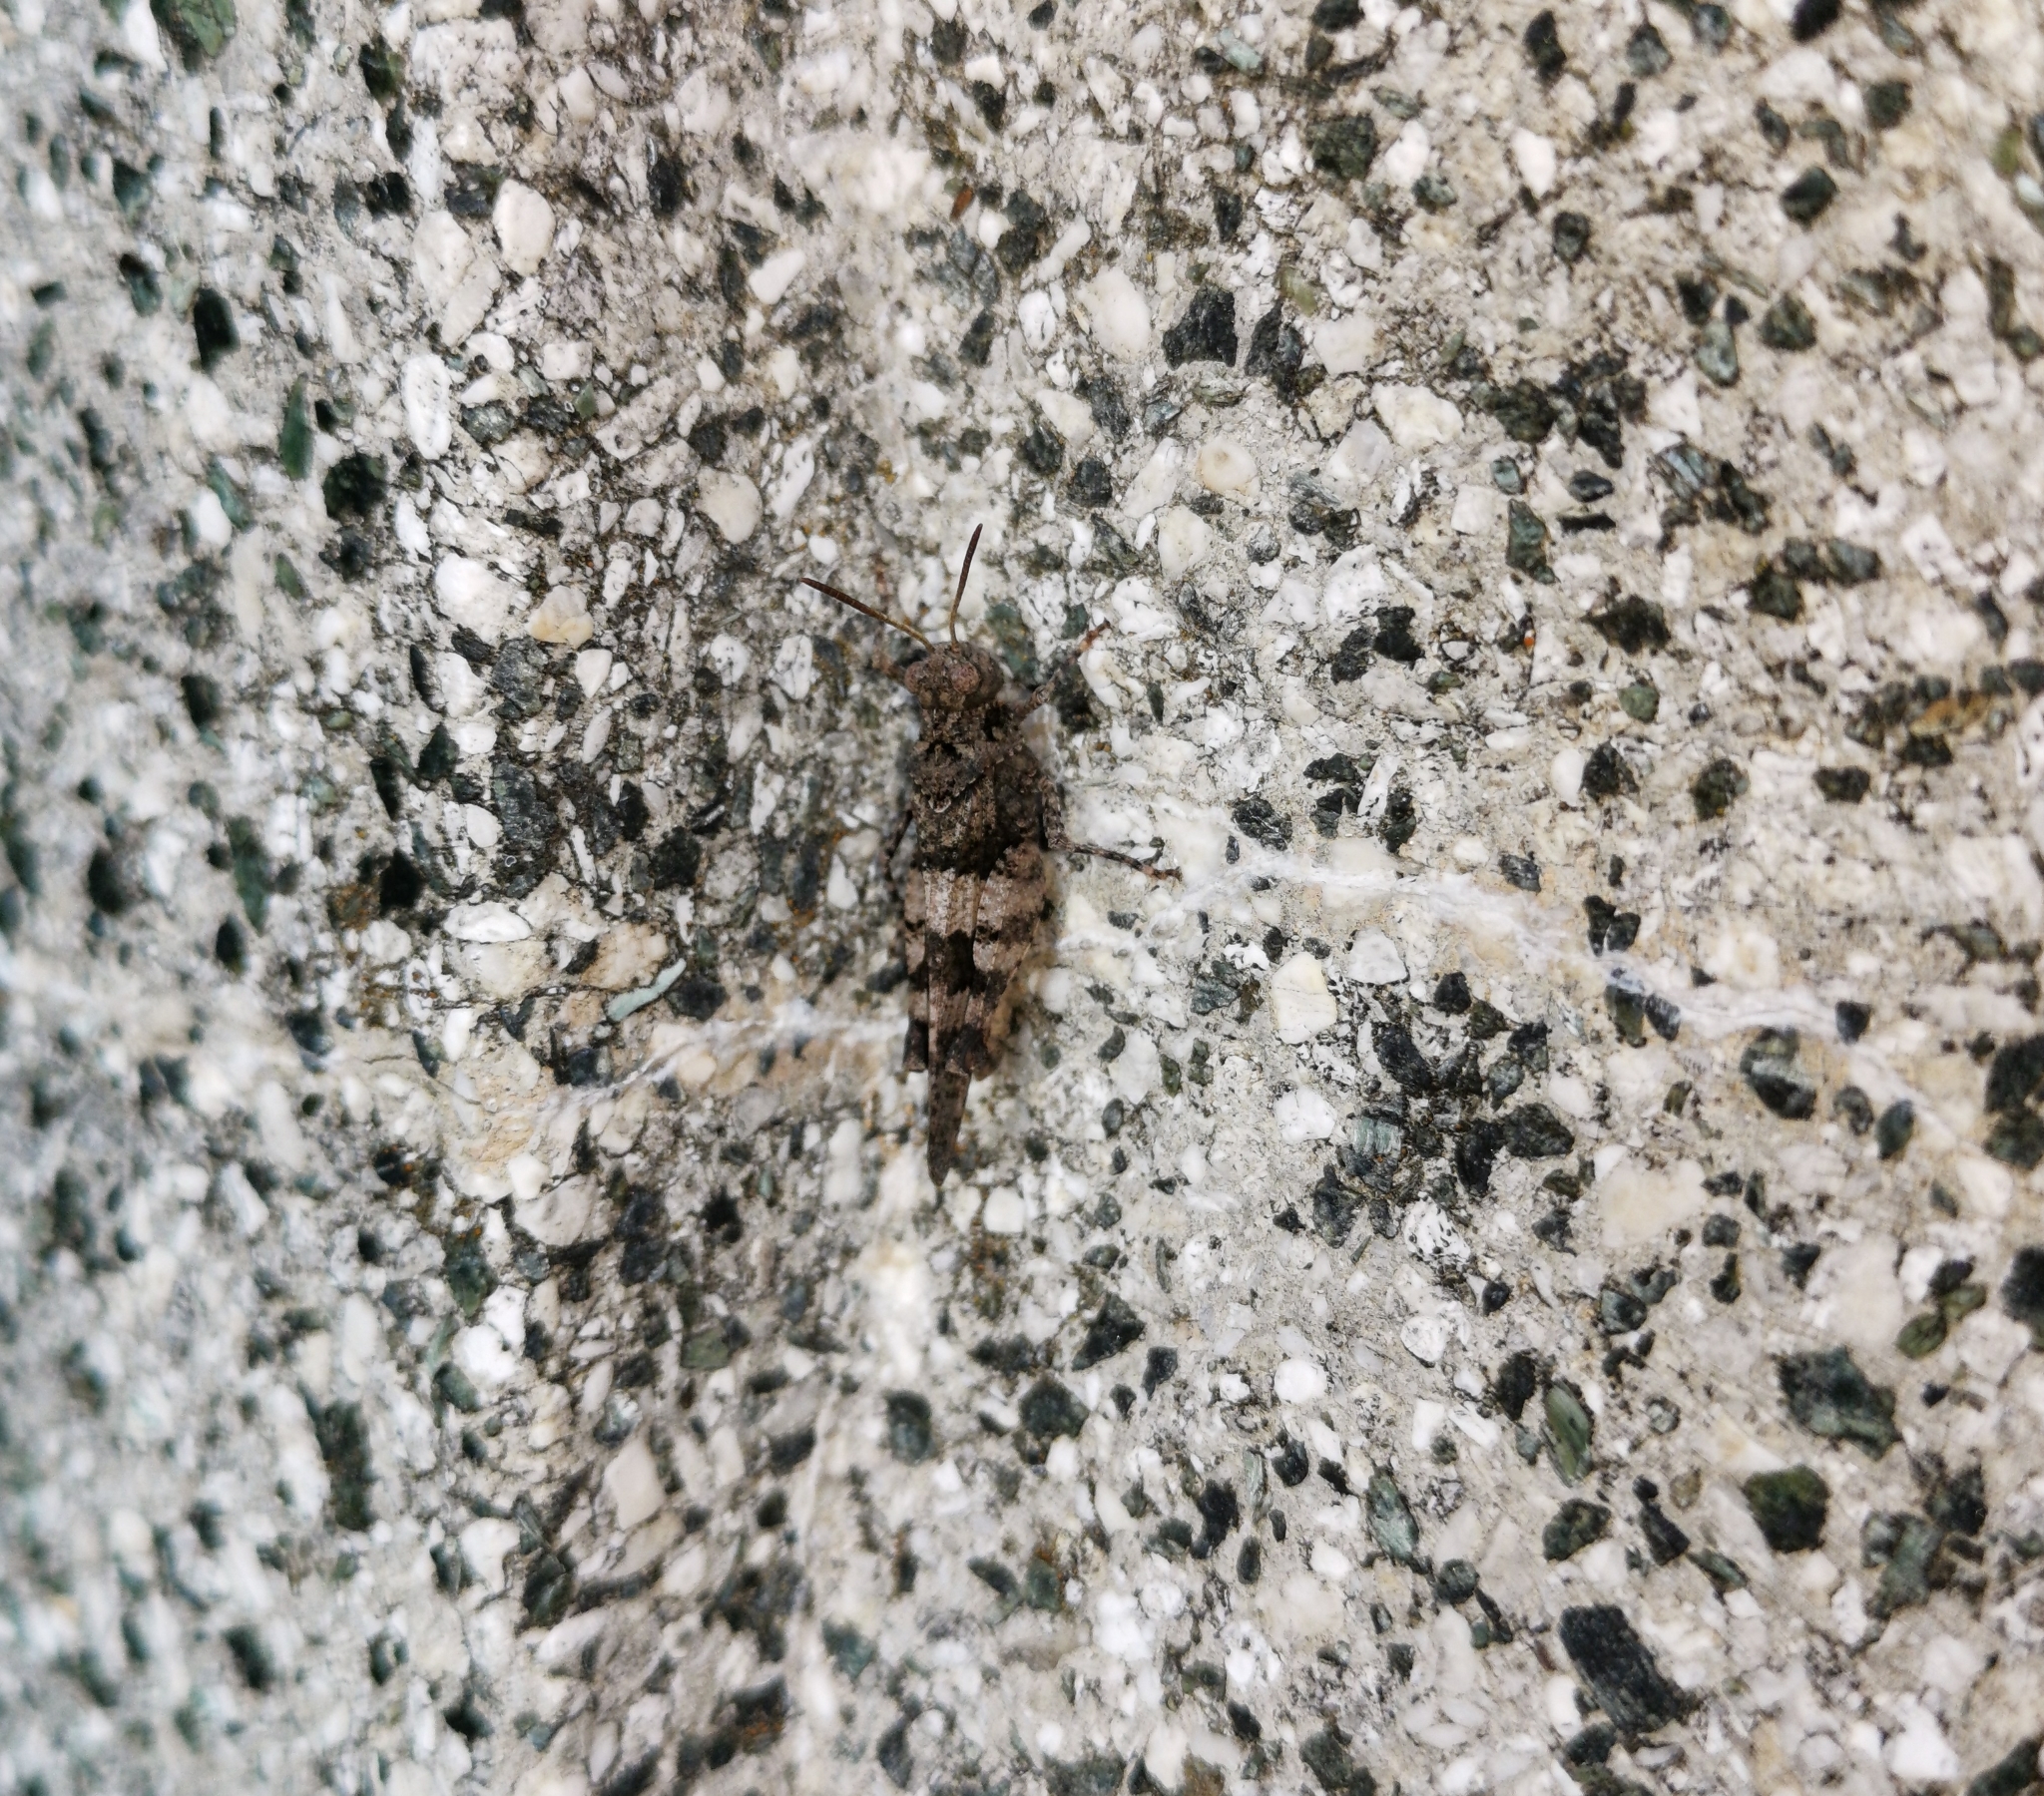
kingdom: Animalia
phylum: Arthropoda
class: Insecta
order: Orthoptera
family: Acrididae
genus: Oedipoda
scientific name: Oedipoda caerulescens
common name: Blue-winged grasshopper
